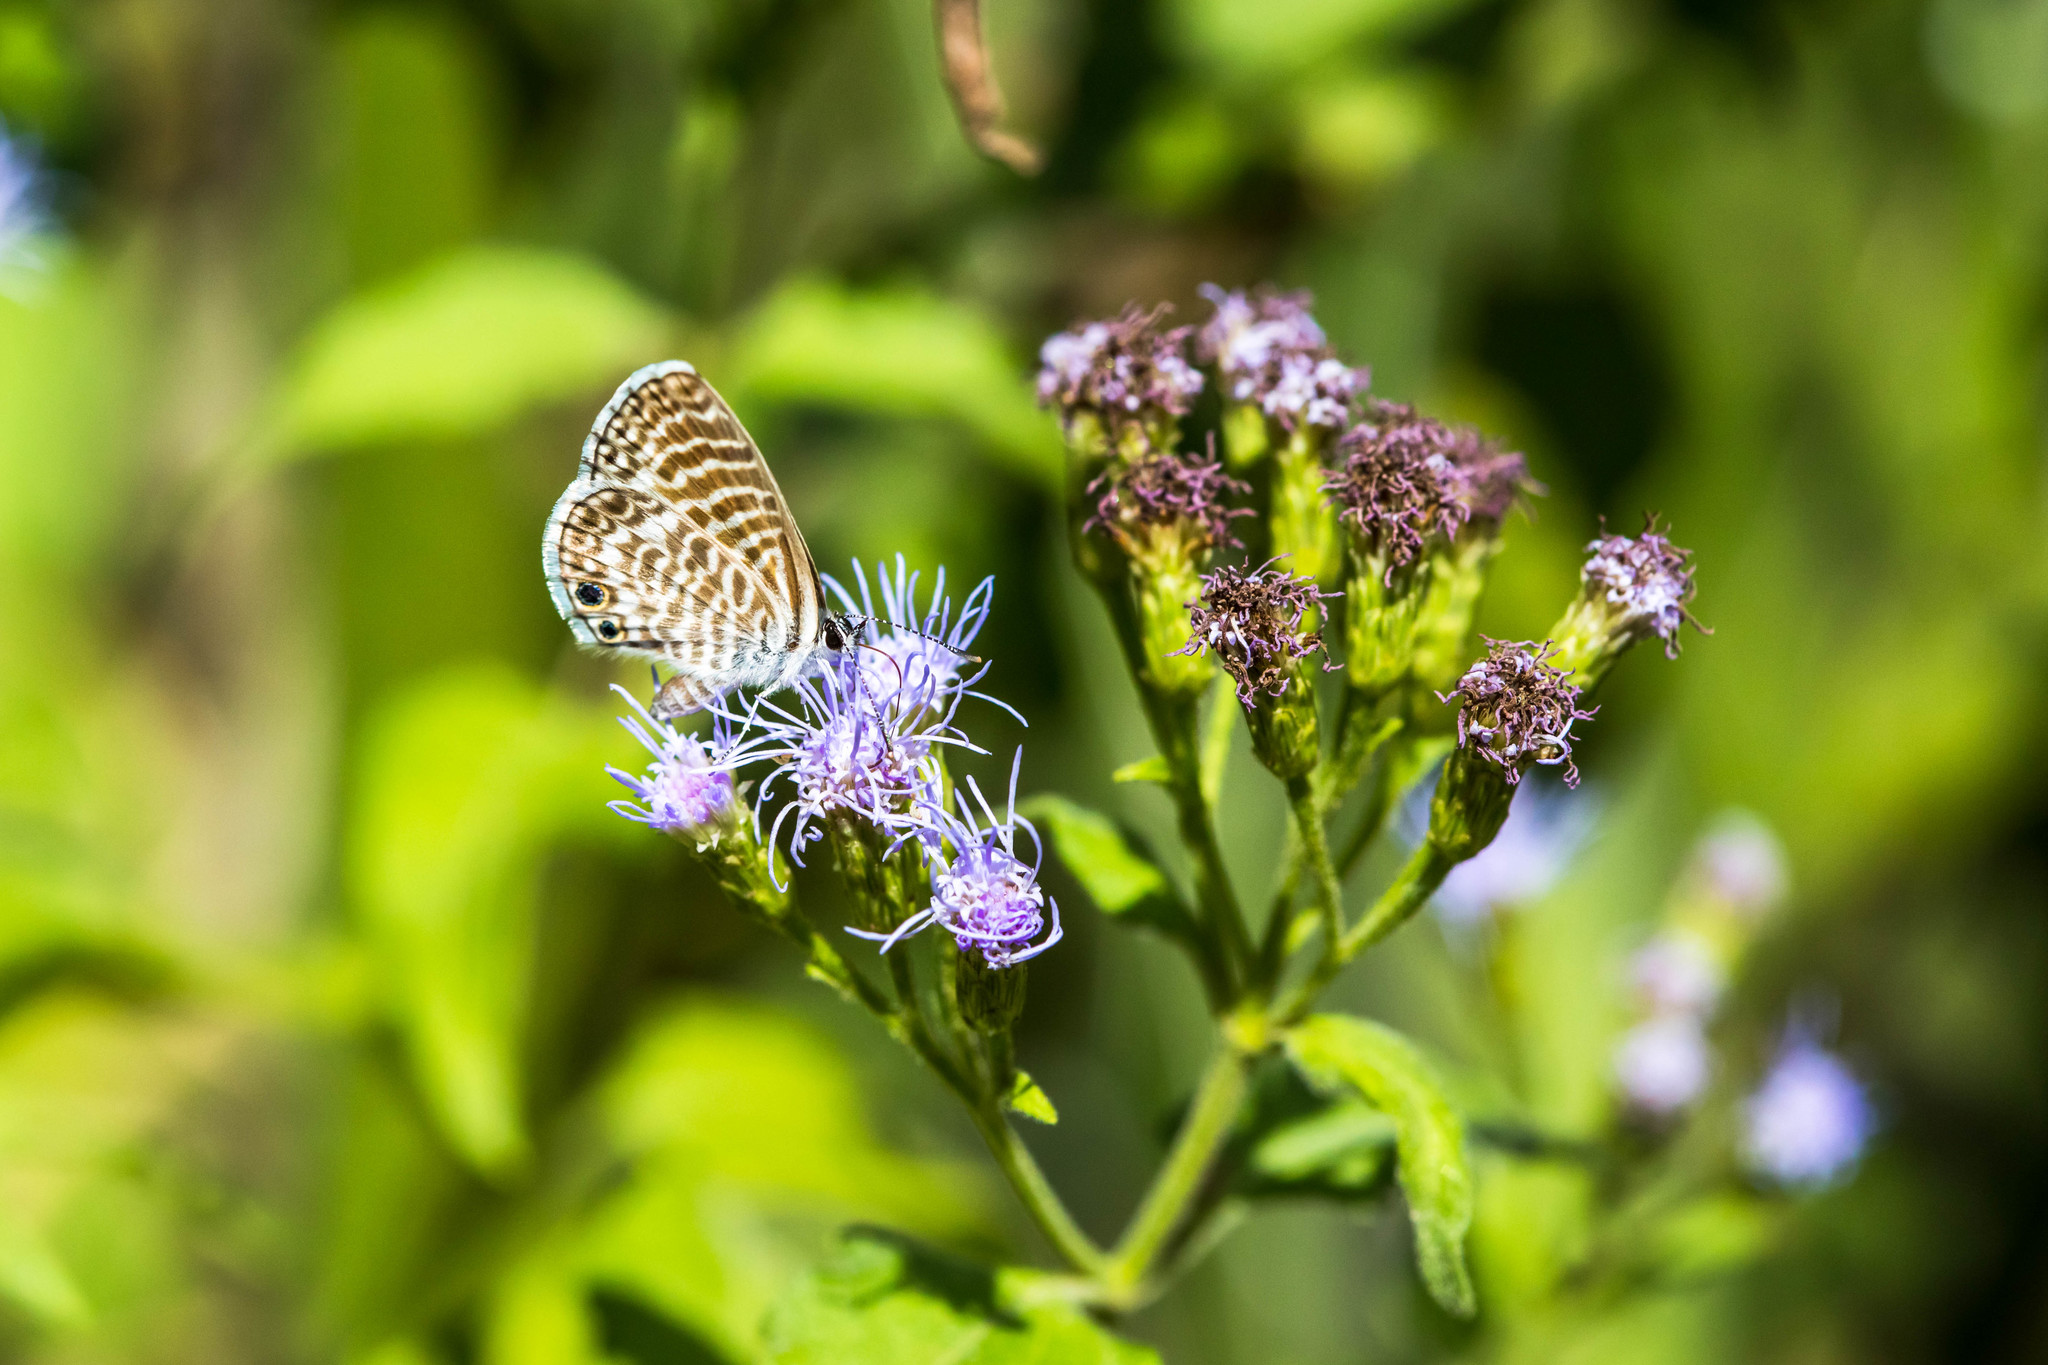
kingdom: Animalia
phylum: Arthropoda
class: Insecta
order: Lepidoptera
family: Lycaenidae
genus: Leptotes
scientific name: Leptotes marina
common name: Marine blue
